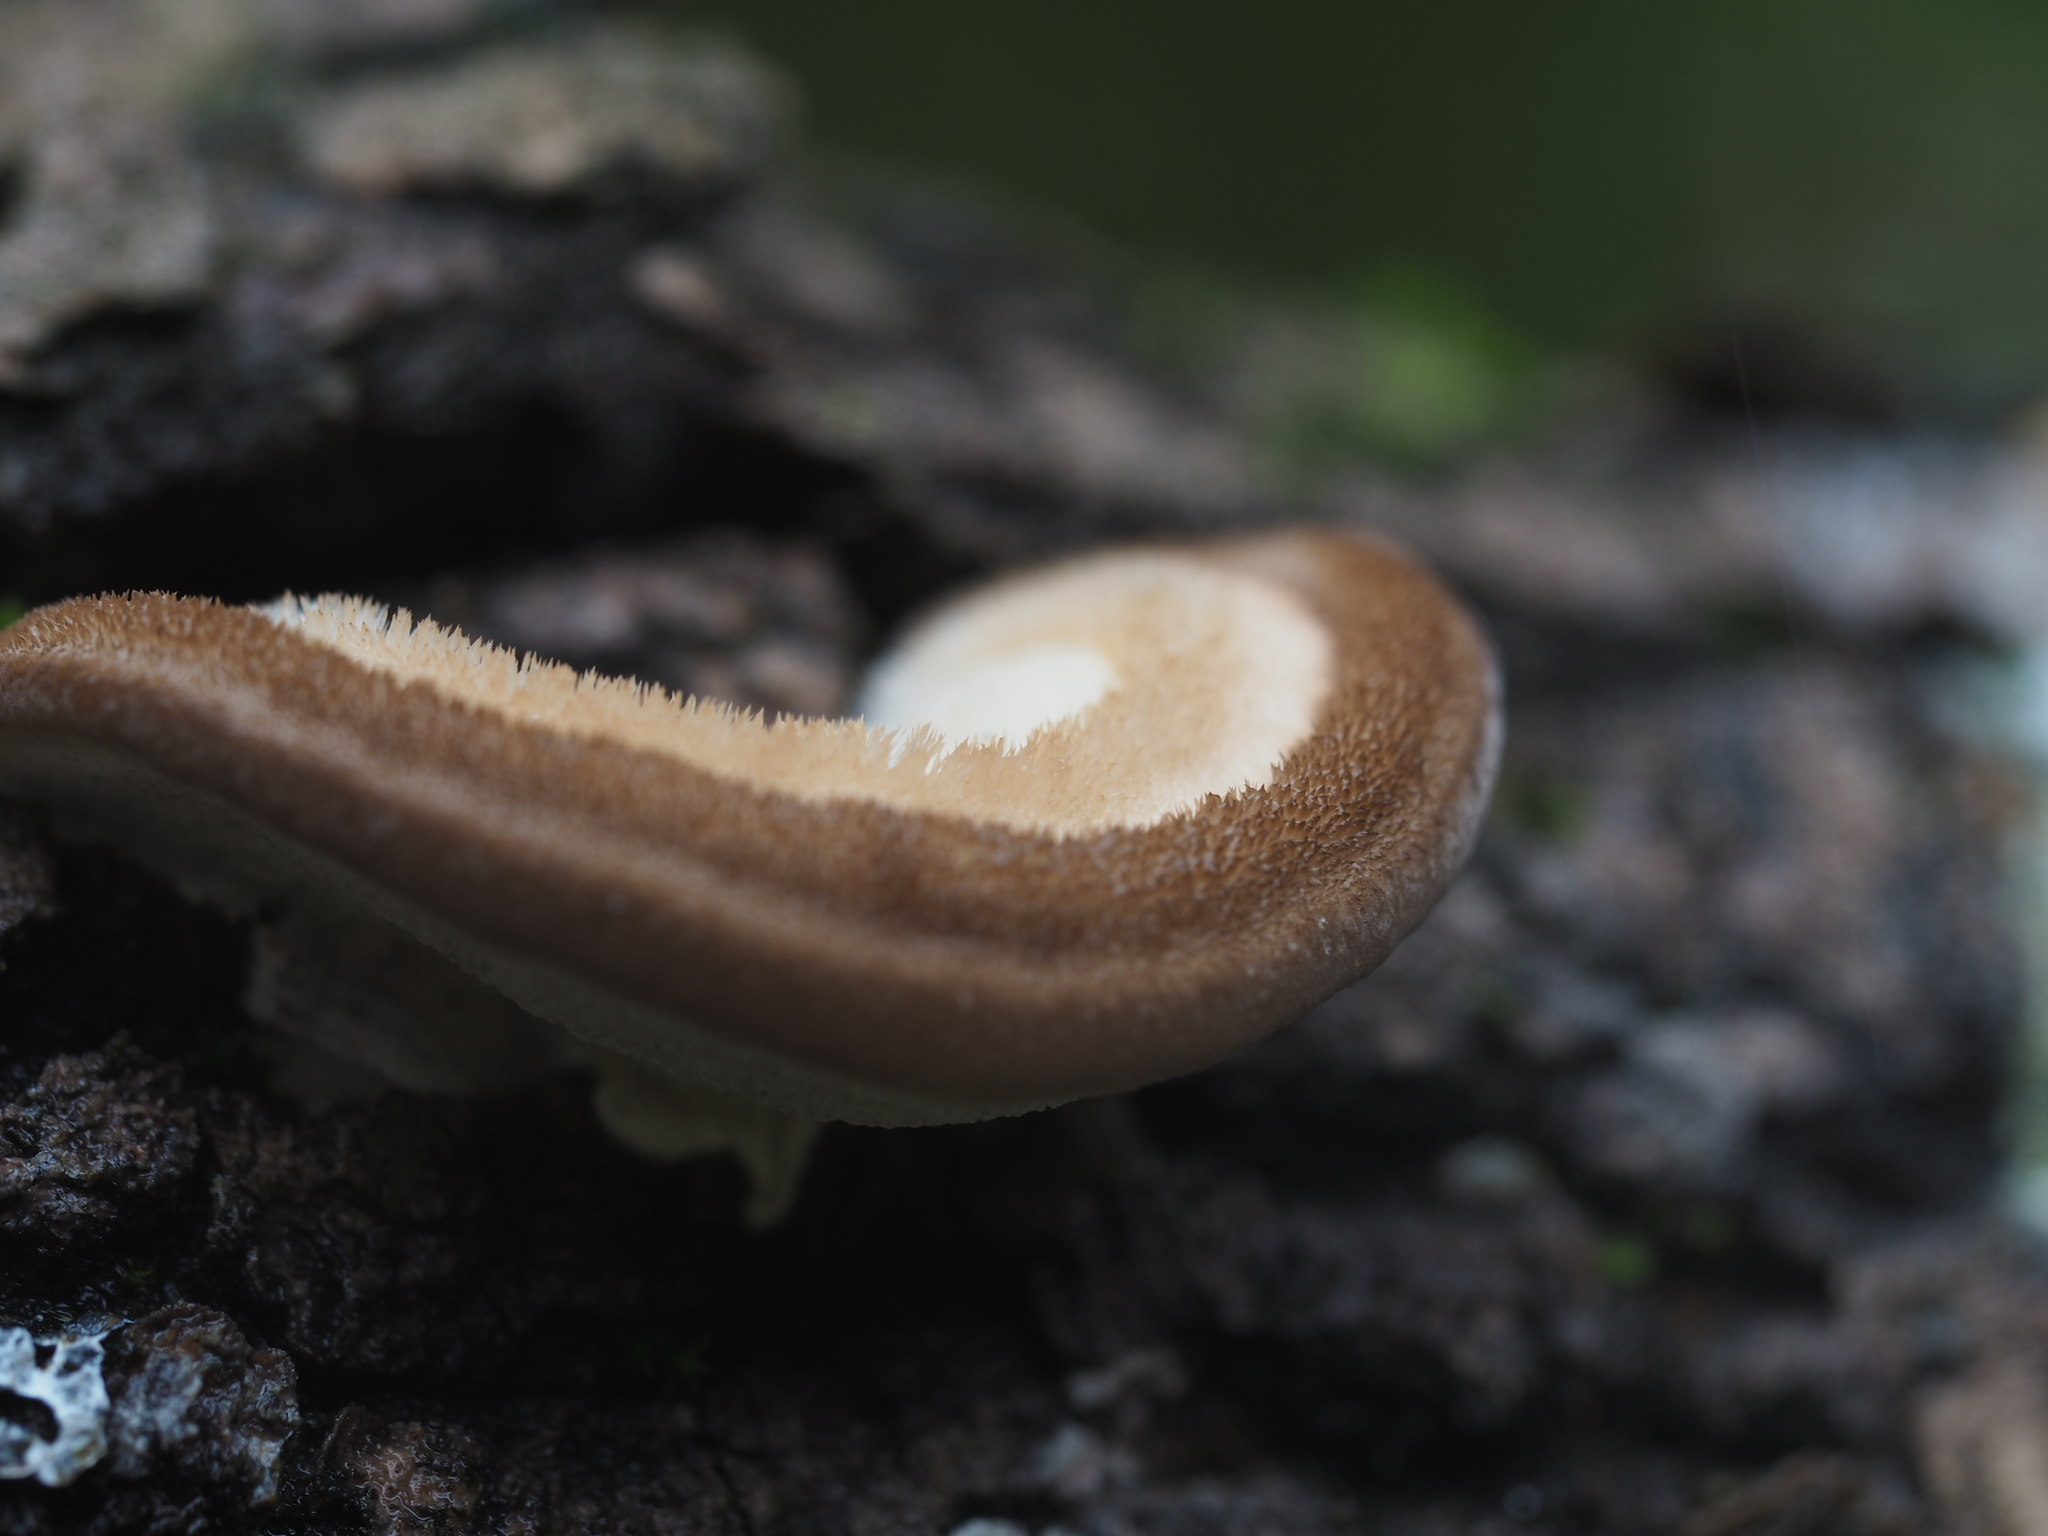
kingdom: Fungi
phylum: Basidiomycota
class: Agaricomycetes
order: Polyporales
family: Polyporaceae
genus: Trametes
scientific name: Trametes hirsuta
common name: Hairy bracket
